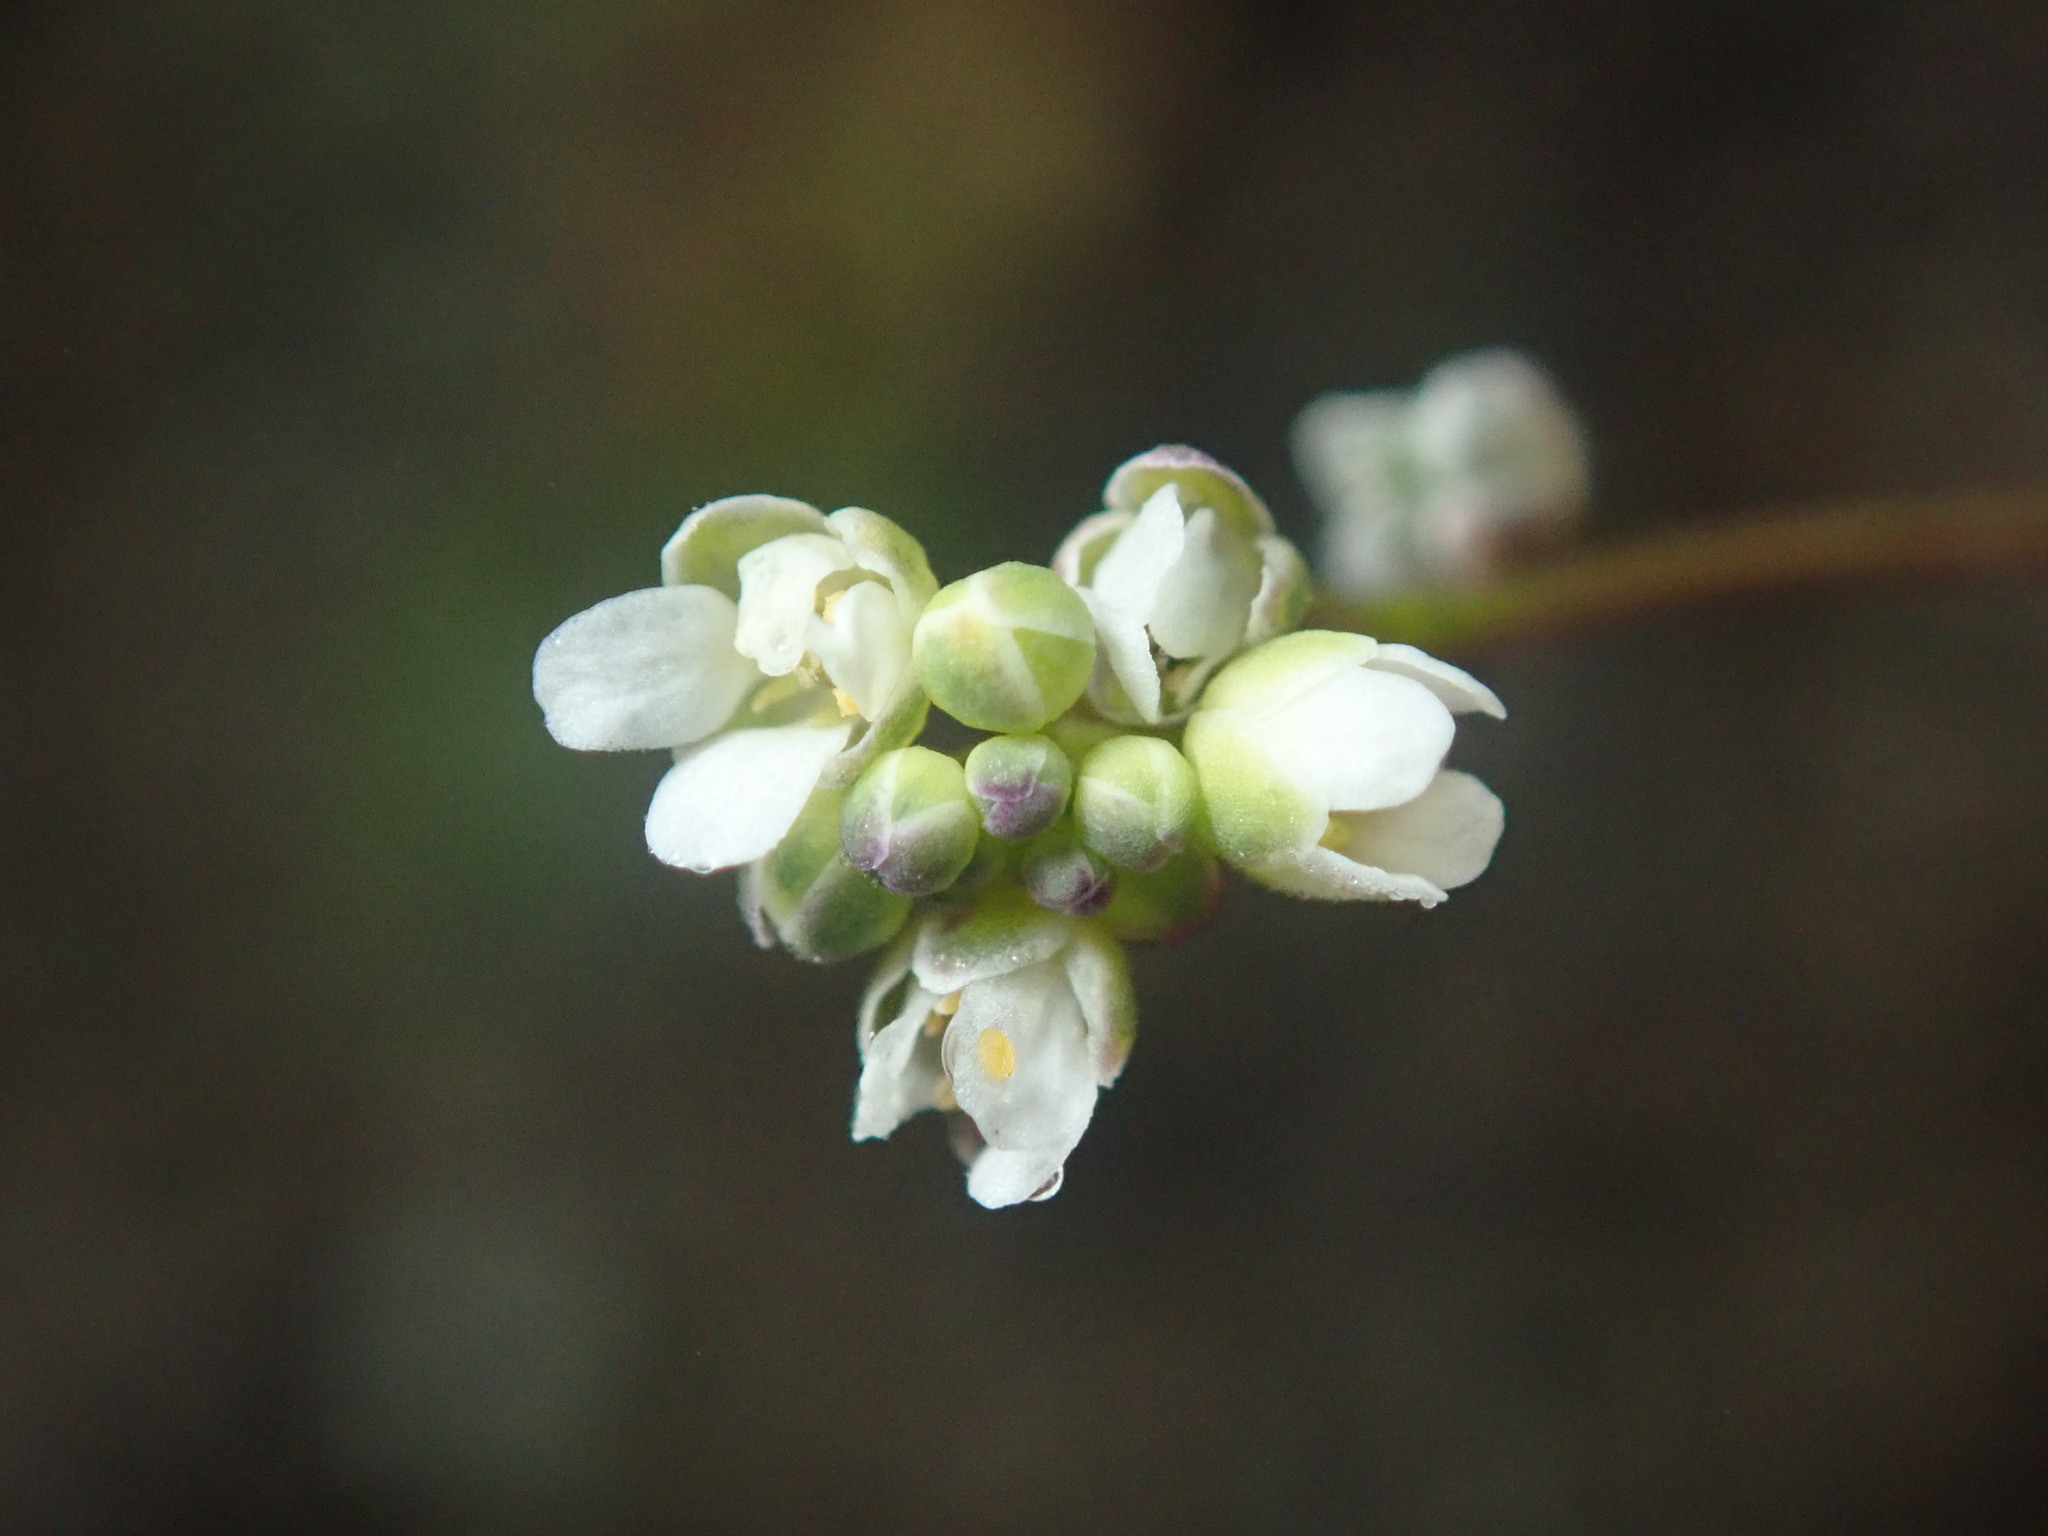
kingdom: Plantae
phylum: Tracheophyta
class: Magnoliopsida
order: Brassicales
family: Brassicaceae
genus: Athysanus
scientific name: Athysanus pusillus
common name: Common sandweed
